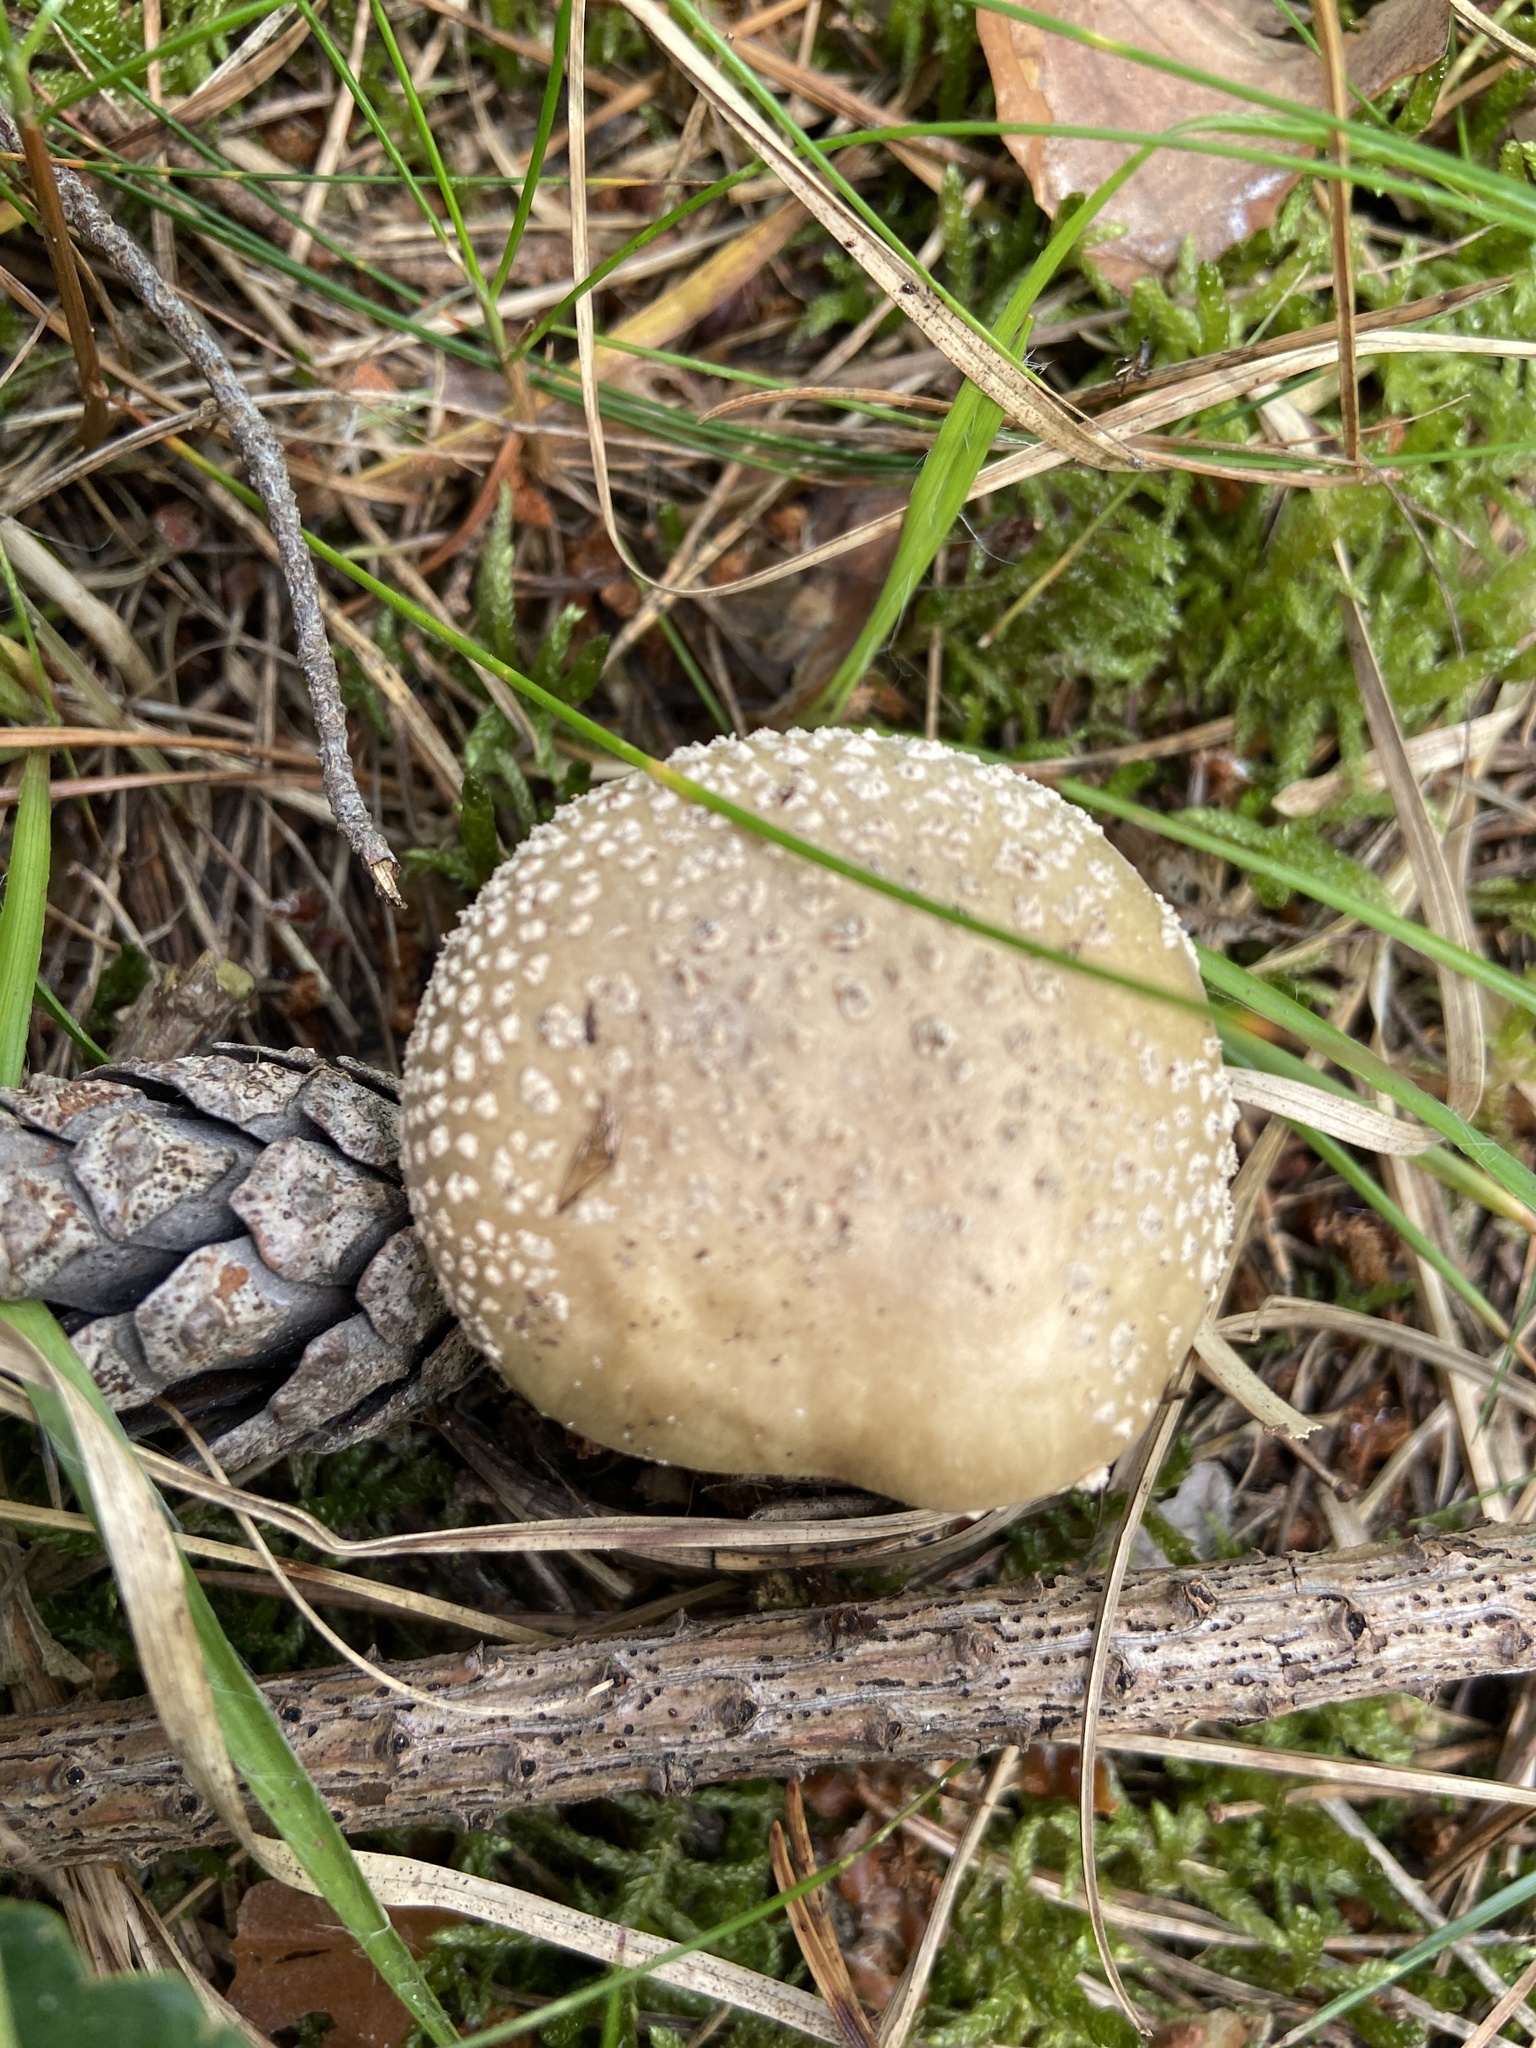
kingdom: Fungi
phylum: Basidiomycota
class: Agaricomycetes
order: Agaricales
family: Amanitaceae
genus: Amanita
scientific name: Amanita rubescens
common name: Blusher
